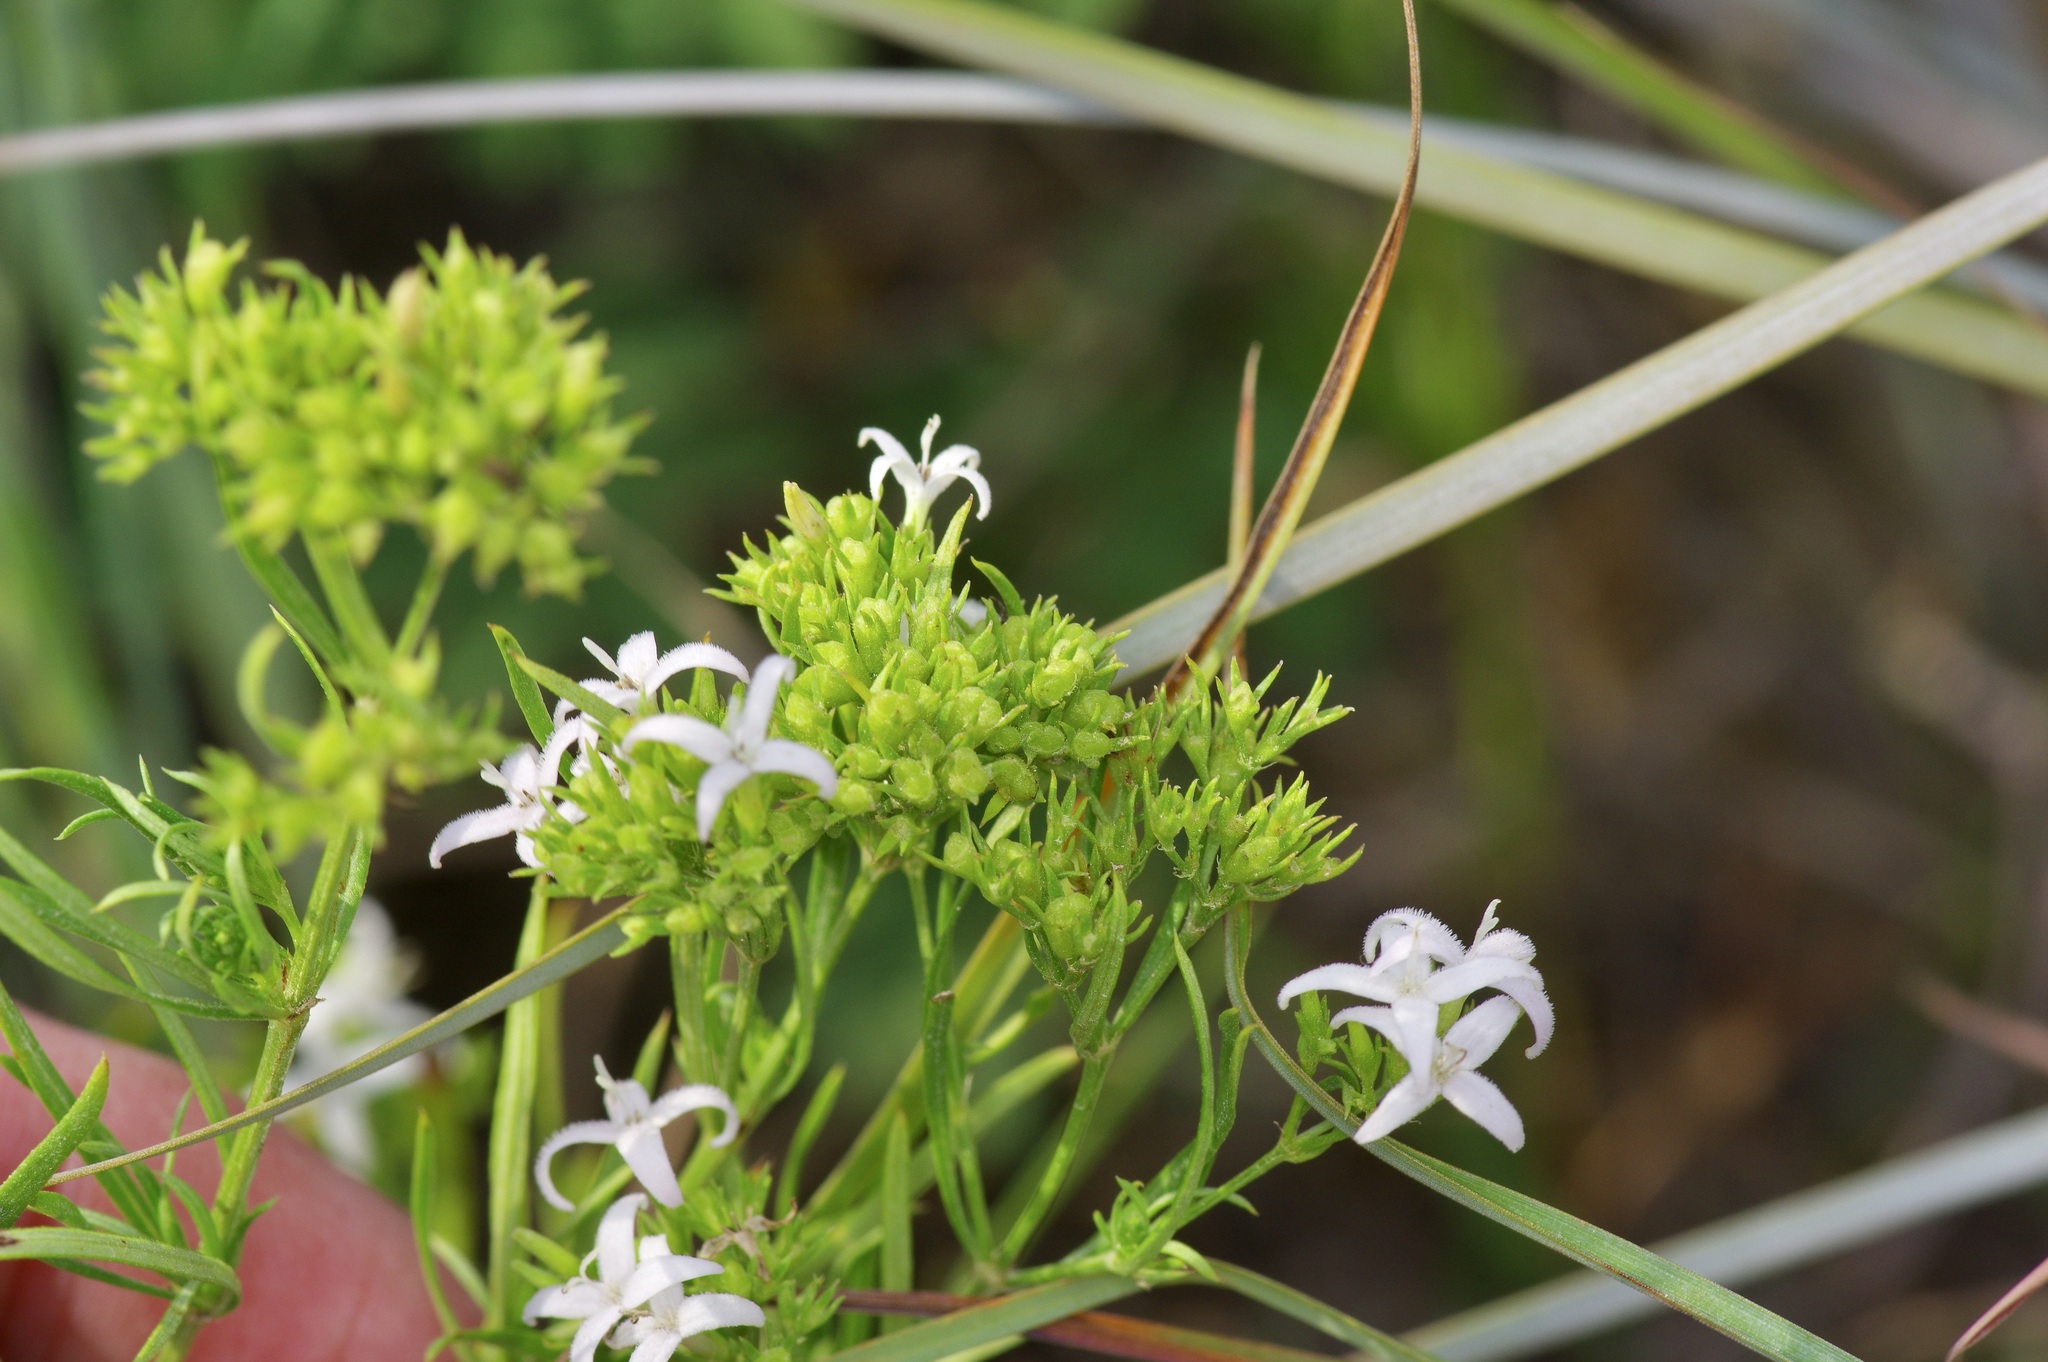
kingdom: Plantae
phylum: Tracheophyta
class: Magnoliopsida
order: Gentianales
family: Rubiaceae
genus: Stenaria
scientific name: Stenaria nigricans
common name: Diamondflowers
